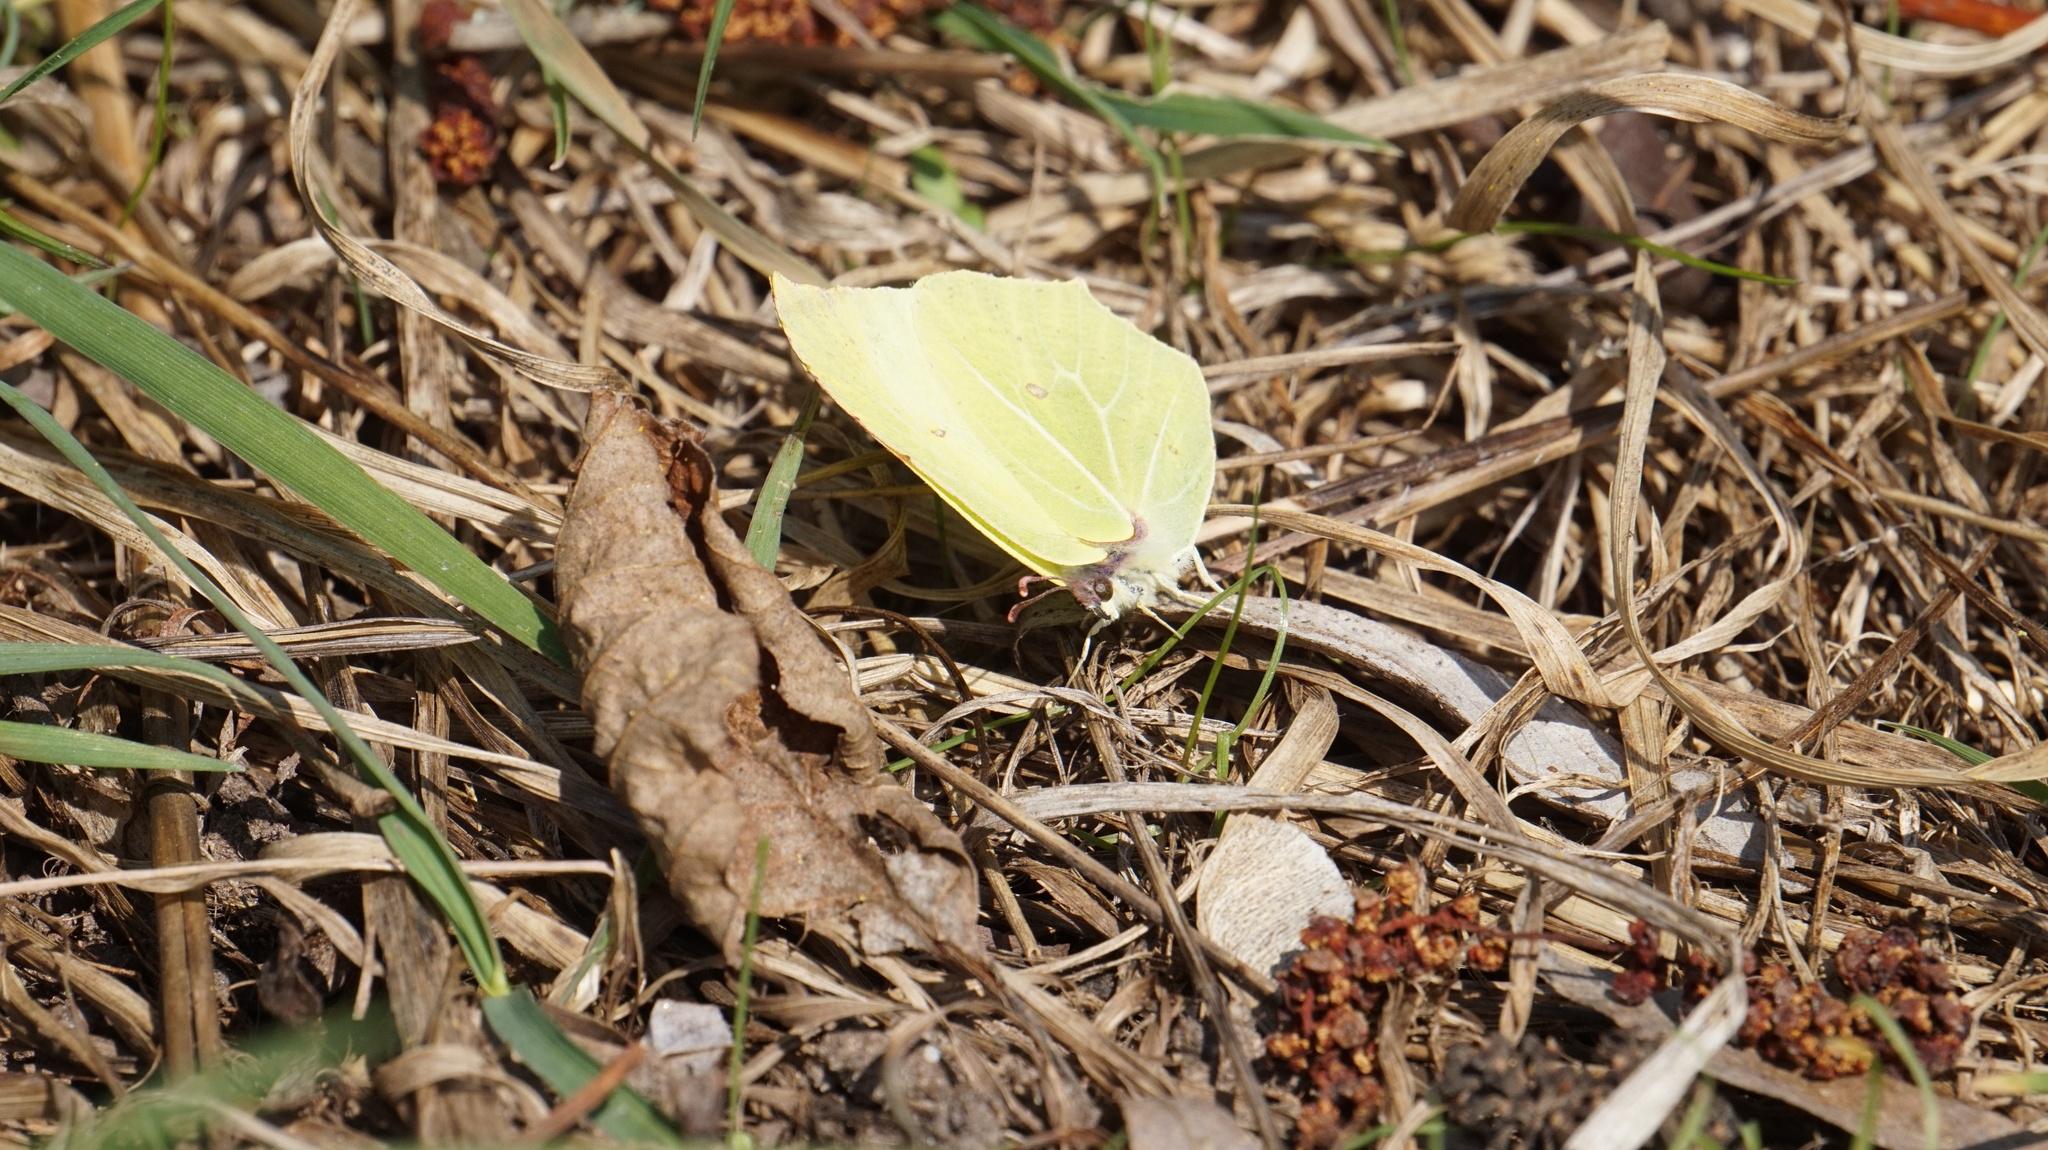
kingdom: Animalia
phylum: Arthropoda
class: Insecta
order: Lepidoptera
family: Pieridae
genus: Gonepteryx
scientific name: Gonepteryx rhamni
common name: Brimstone
